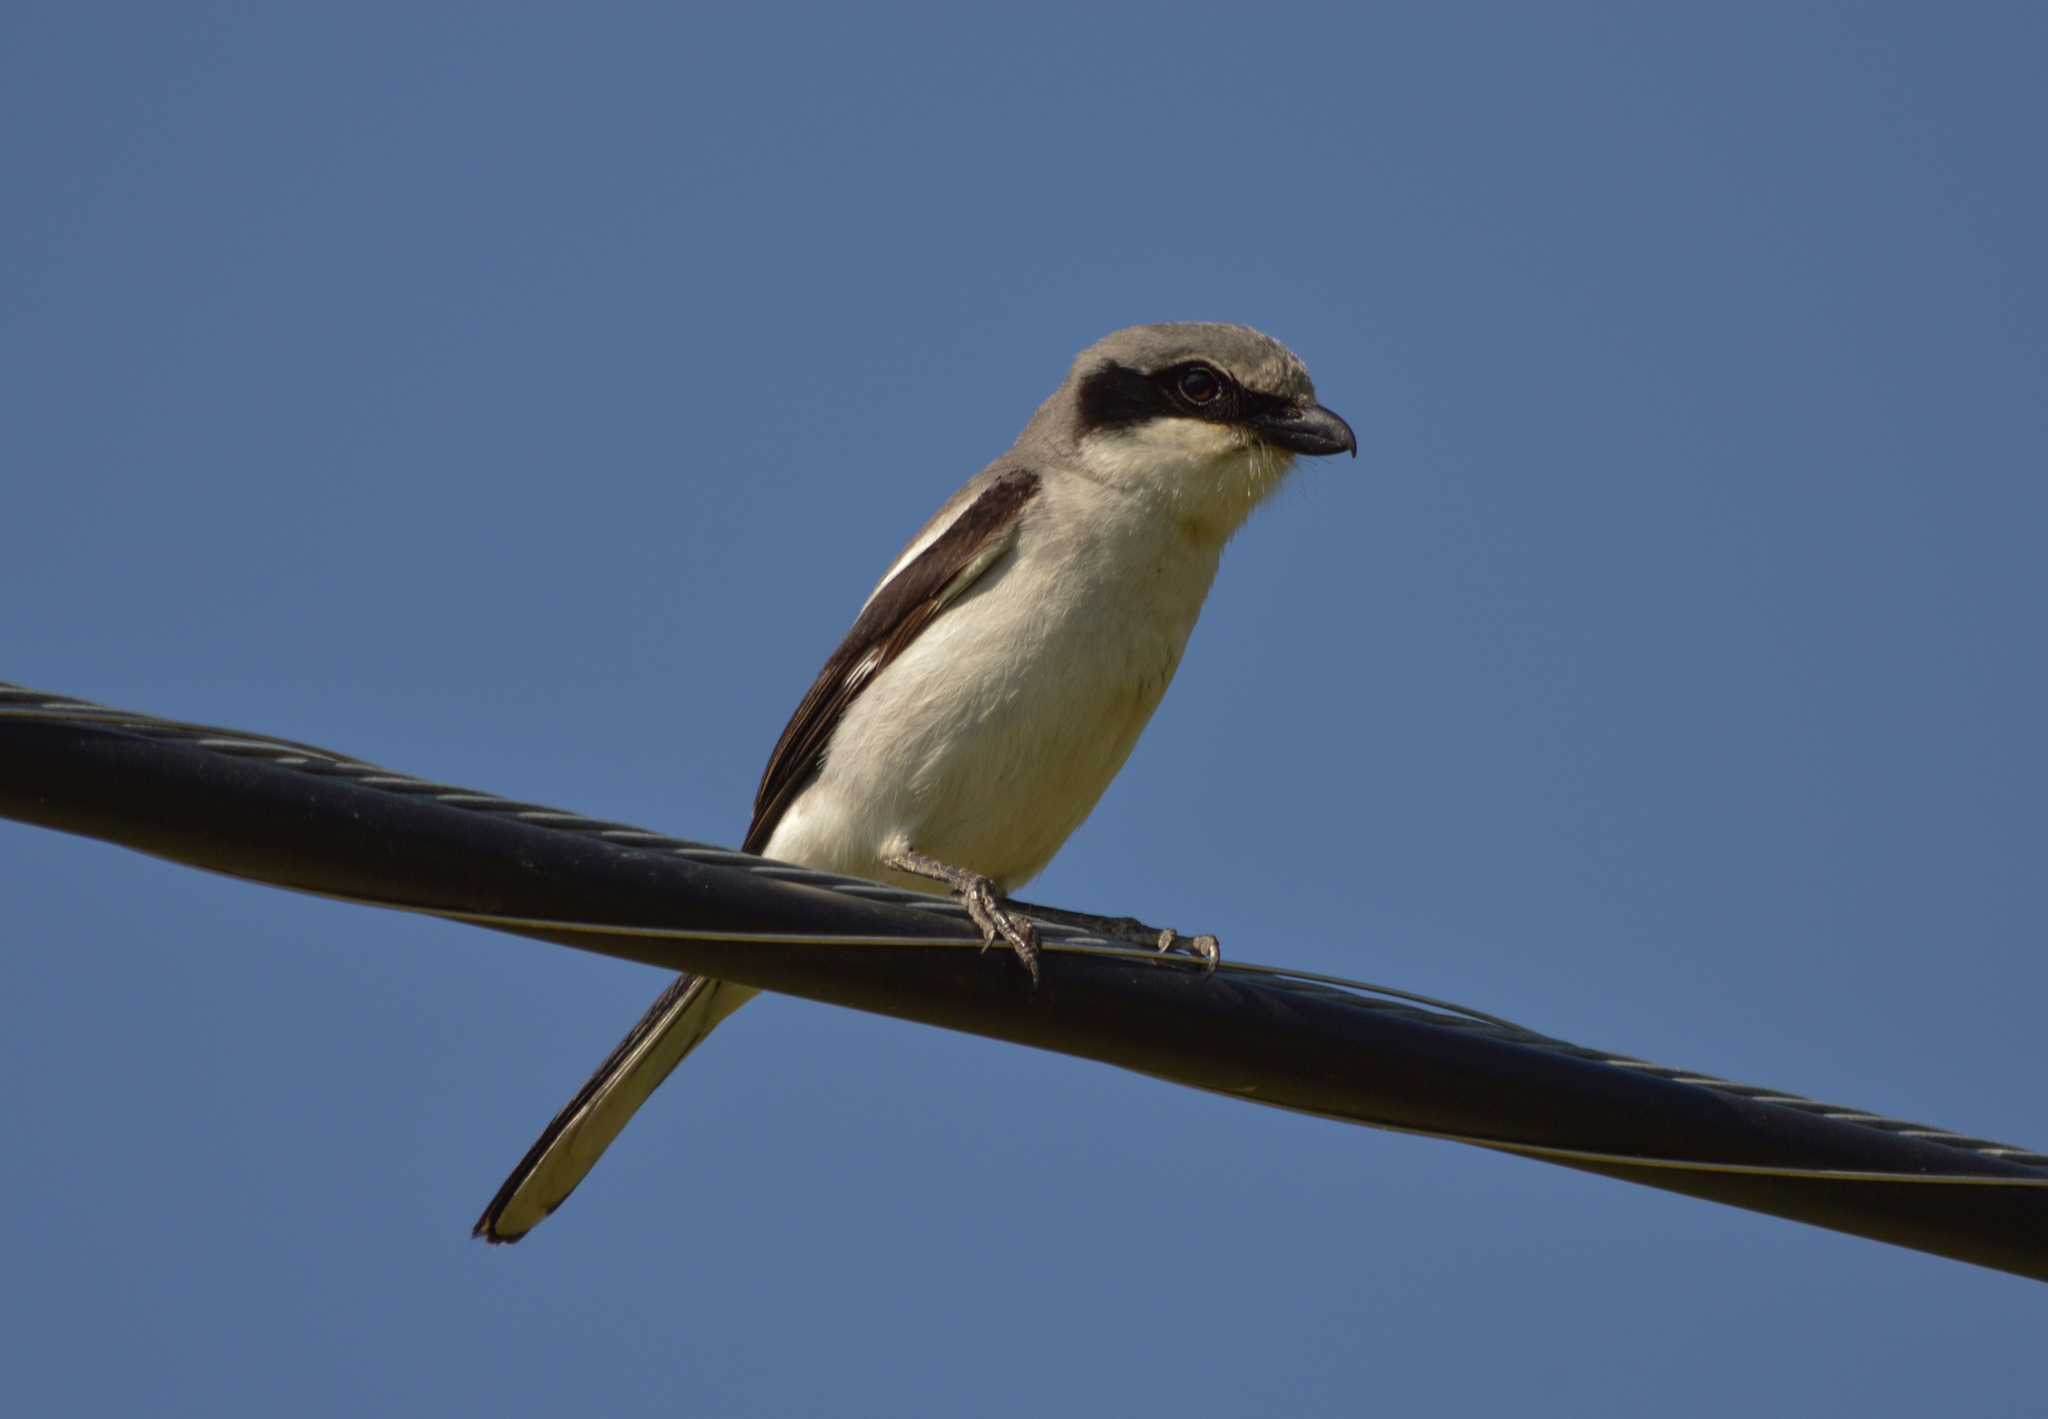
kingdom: Animalia
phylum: Chordata
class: Aves
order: Passeriformes
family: Laniidae
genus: Lanius
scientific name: Lanius ludovicianus
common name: Loggerhead shrike
